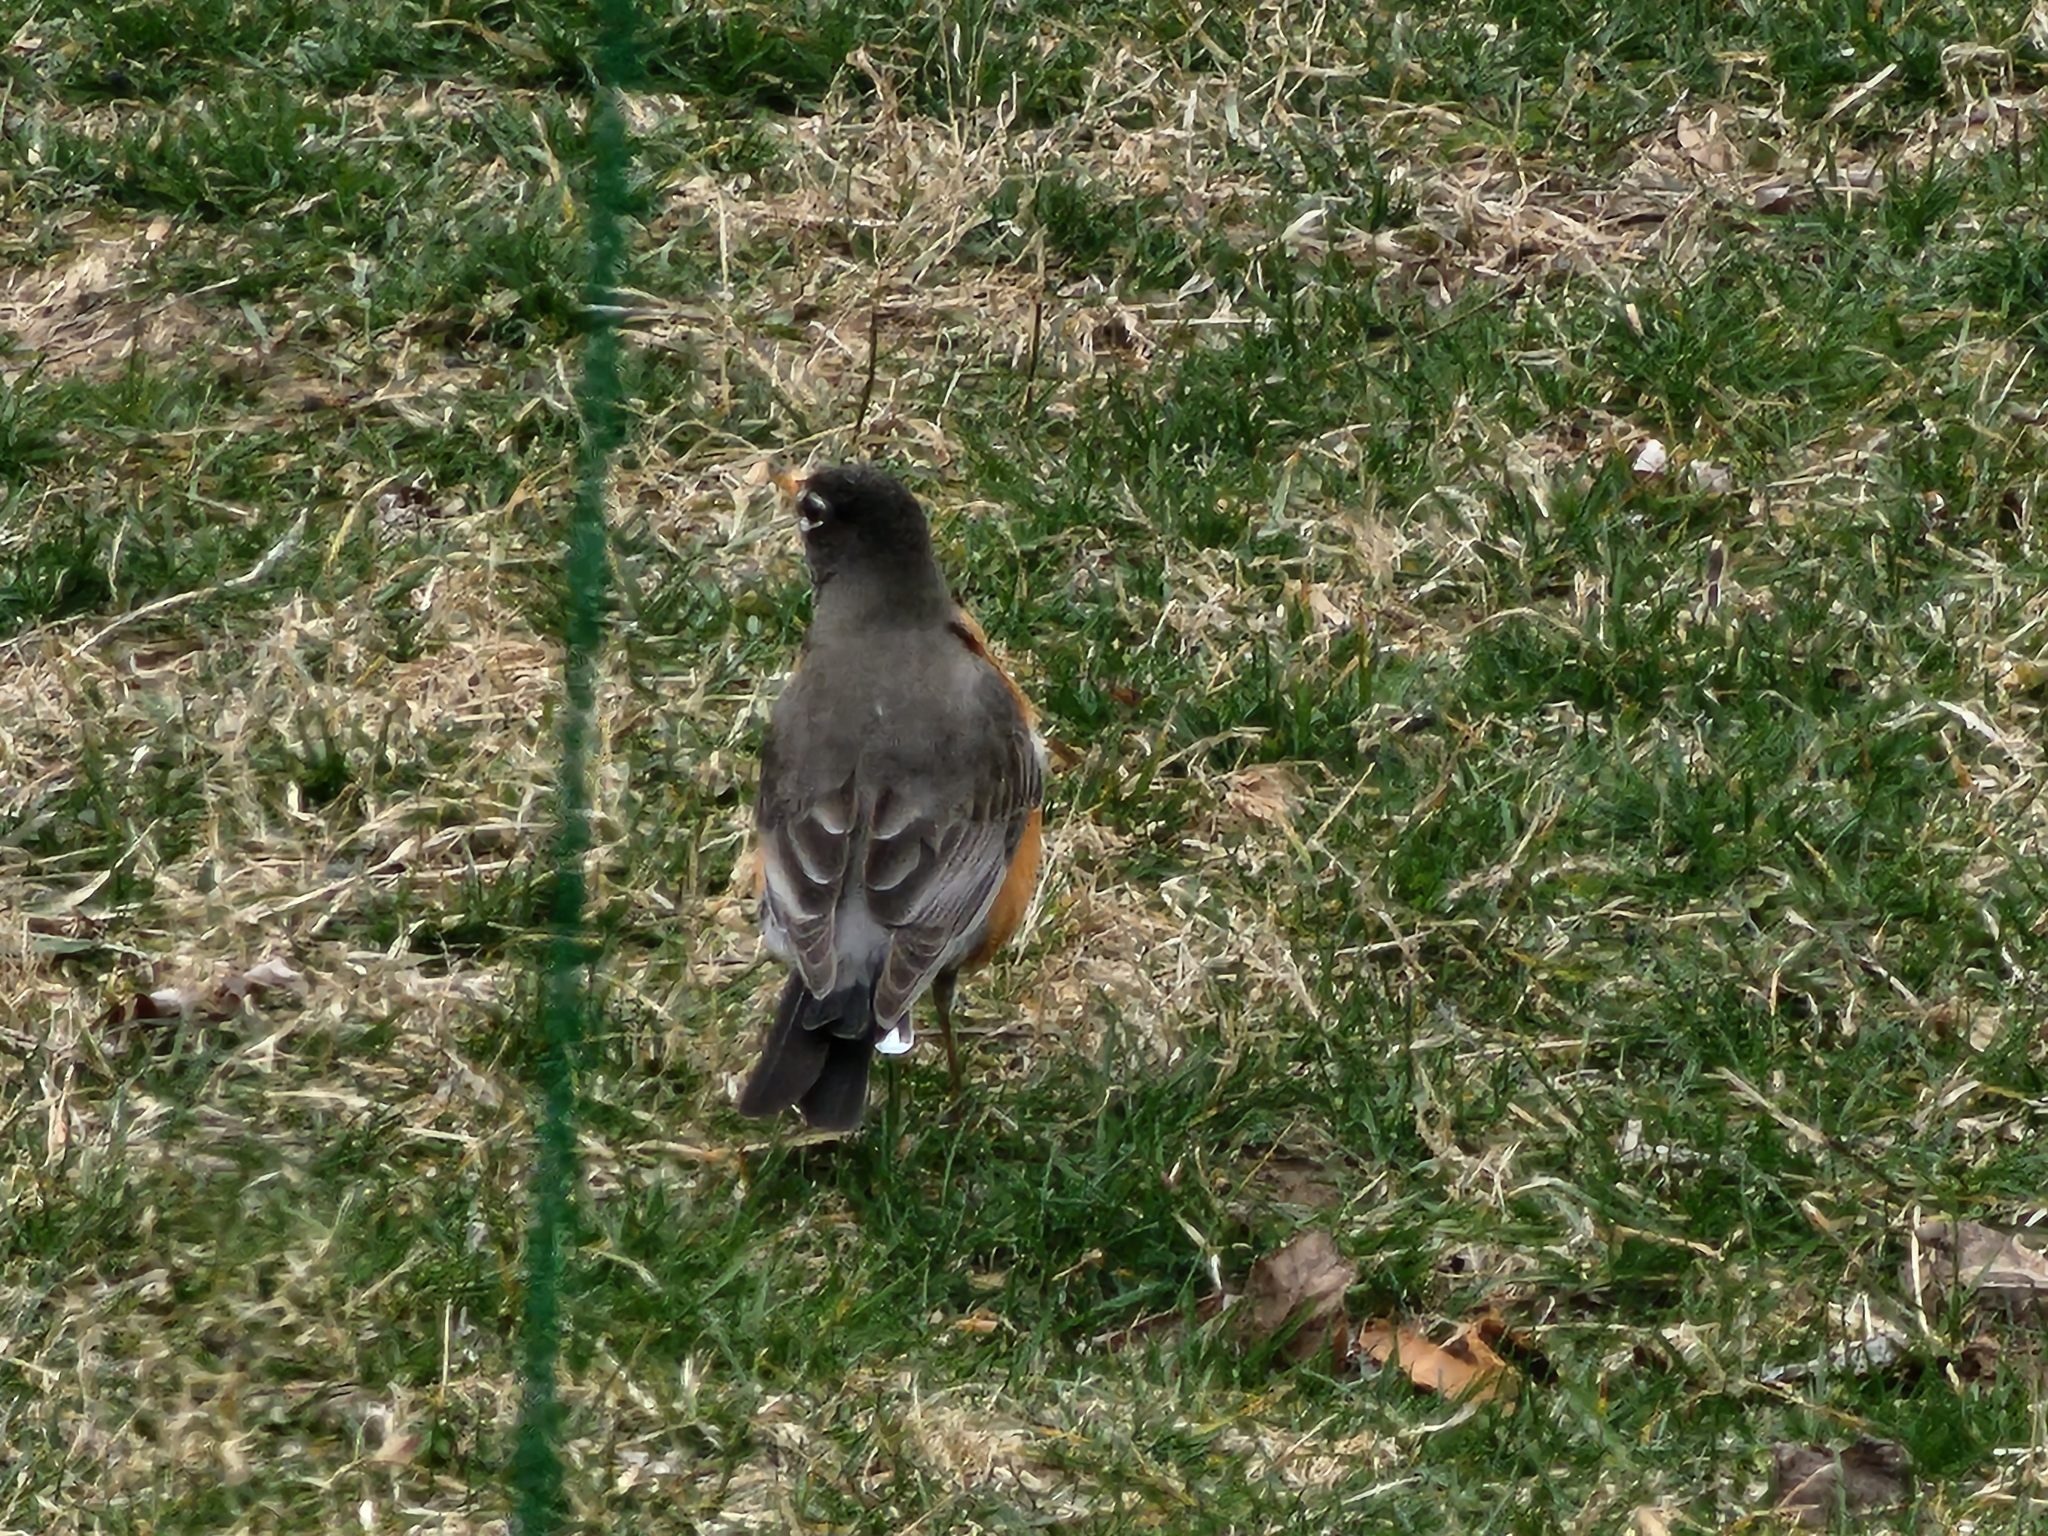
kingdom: Animalia
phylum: Chordata
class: Aves
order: Passeriformes
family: Turdidae
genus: Turdus
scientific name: Turdus migratorius
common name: American robin
